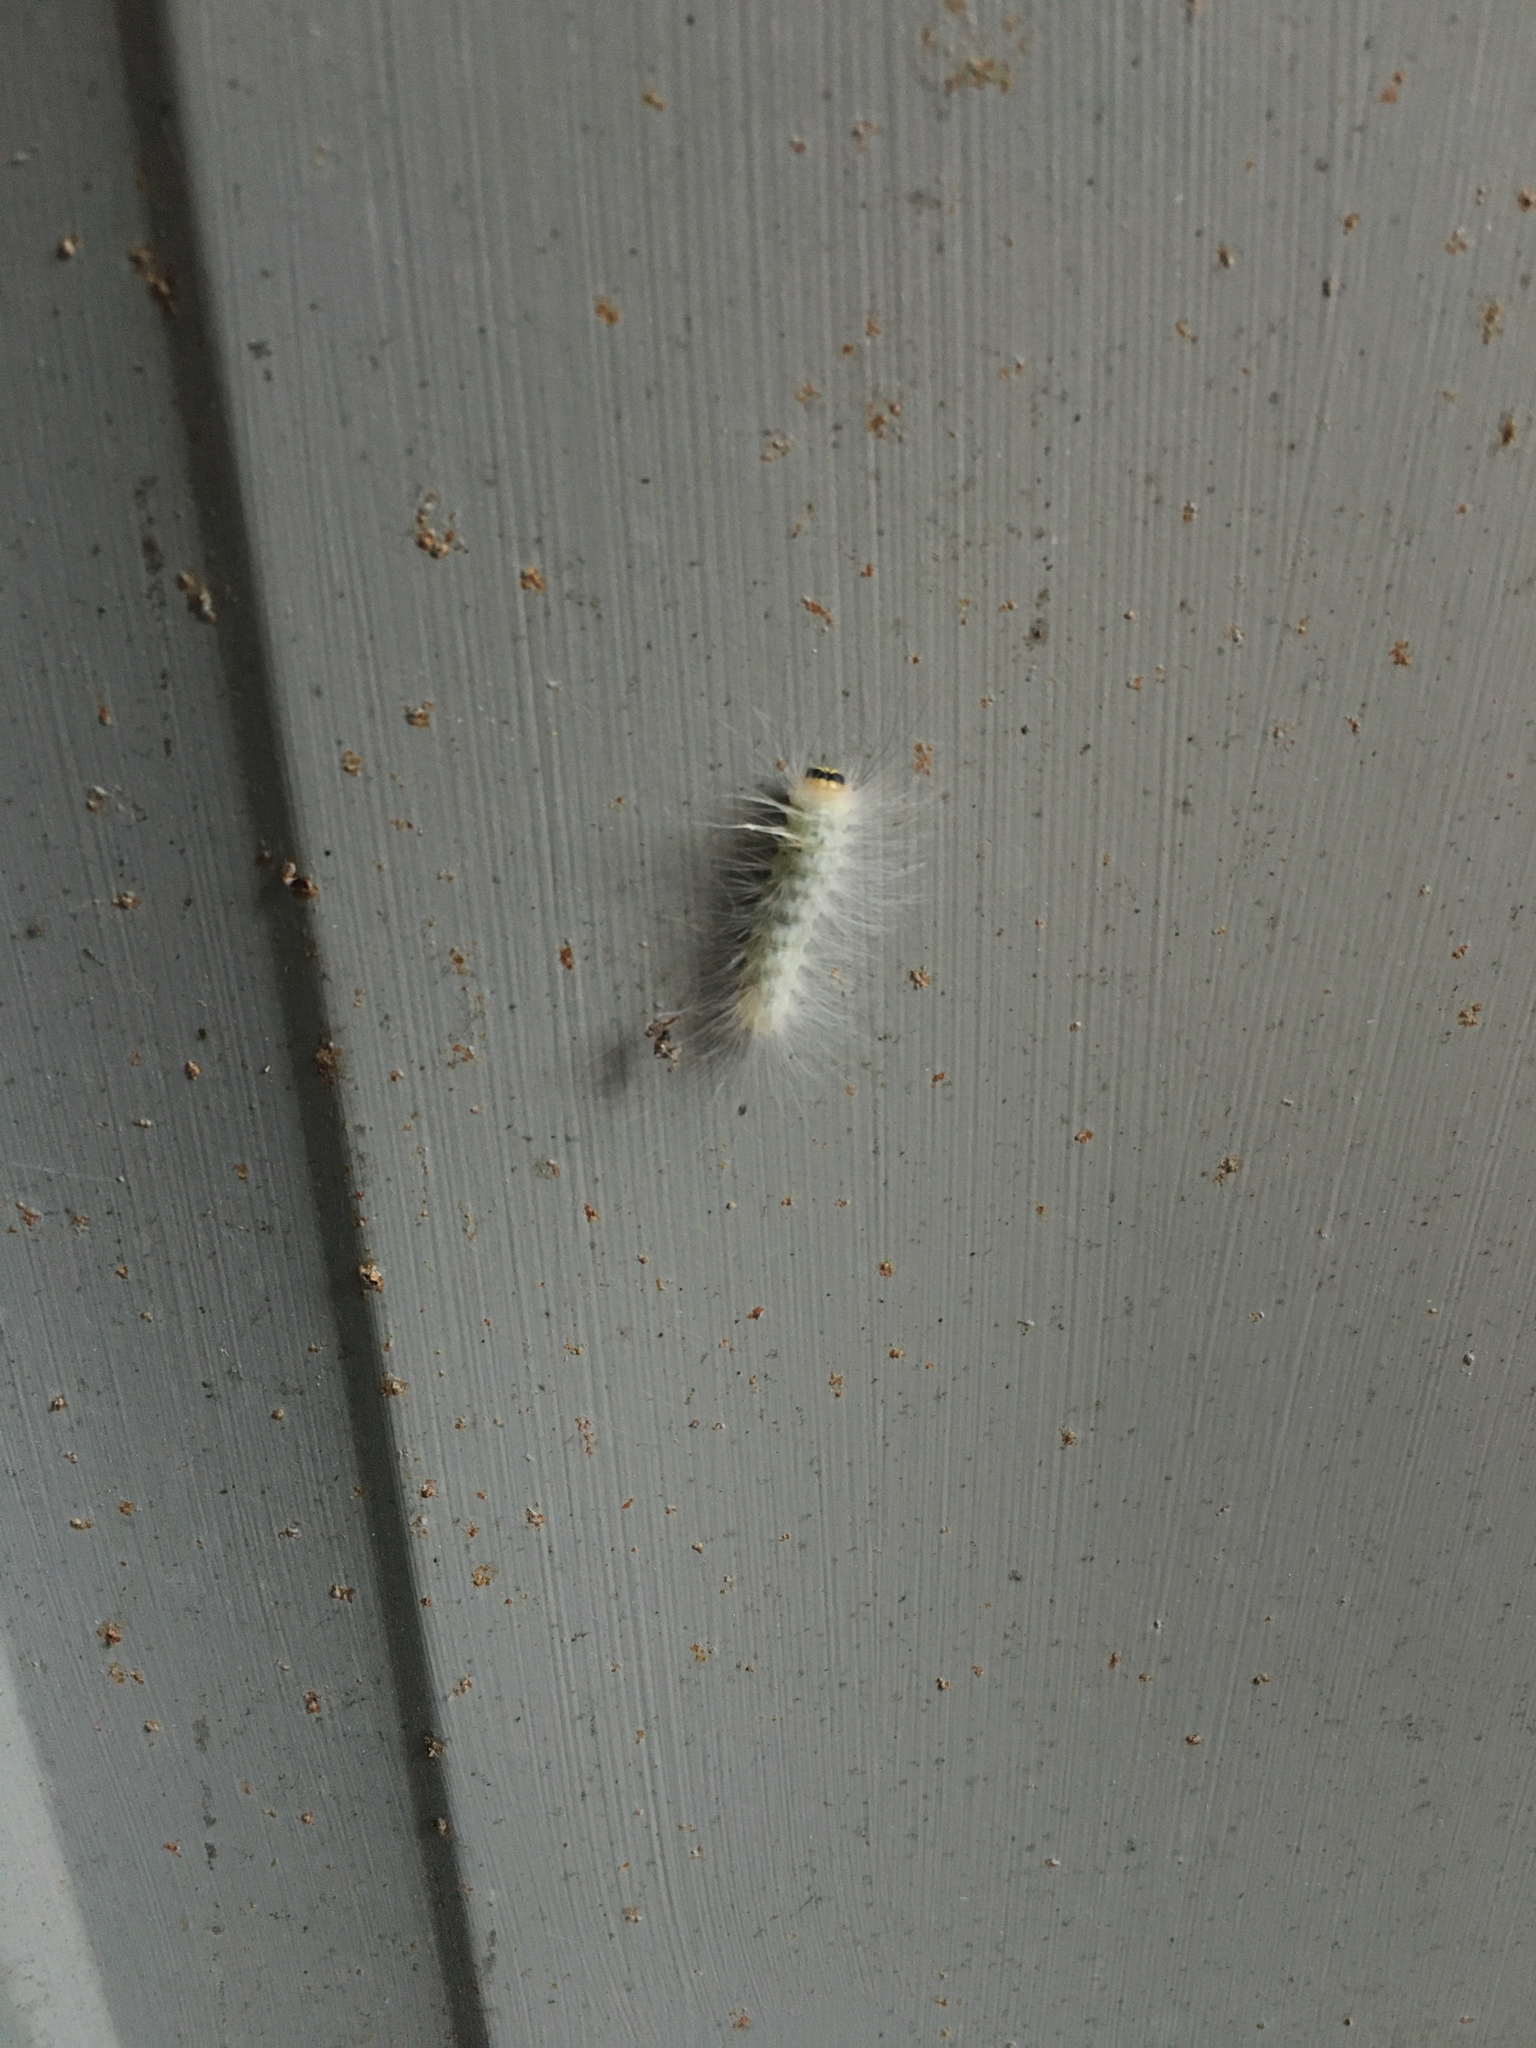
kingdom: Animalia
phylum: Arthropoda
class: Insecta
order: Lepidoptera
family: Noctuidae
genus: Charadra
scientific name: Charadra deridens
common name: Marbled tuffet
